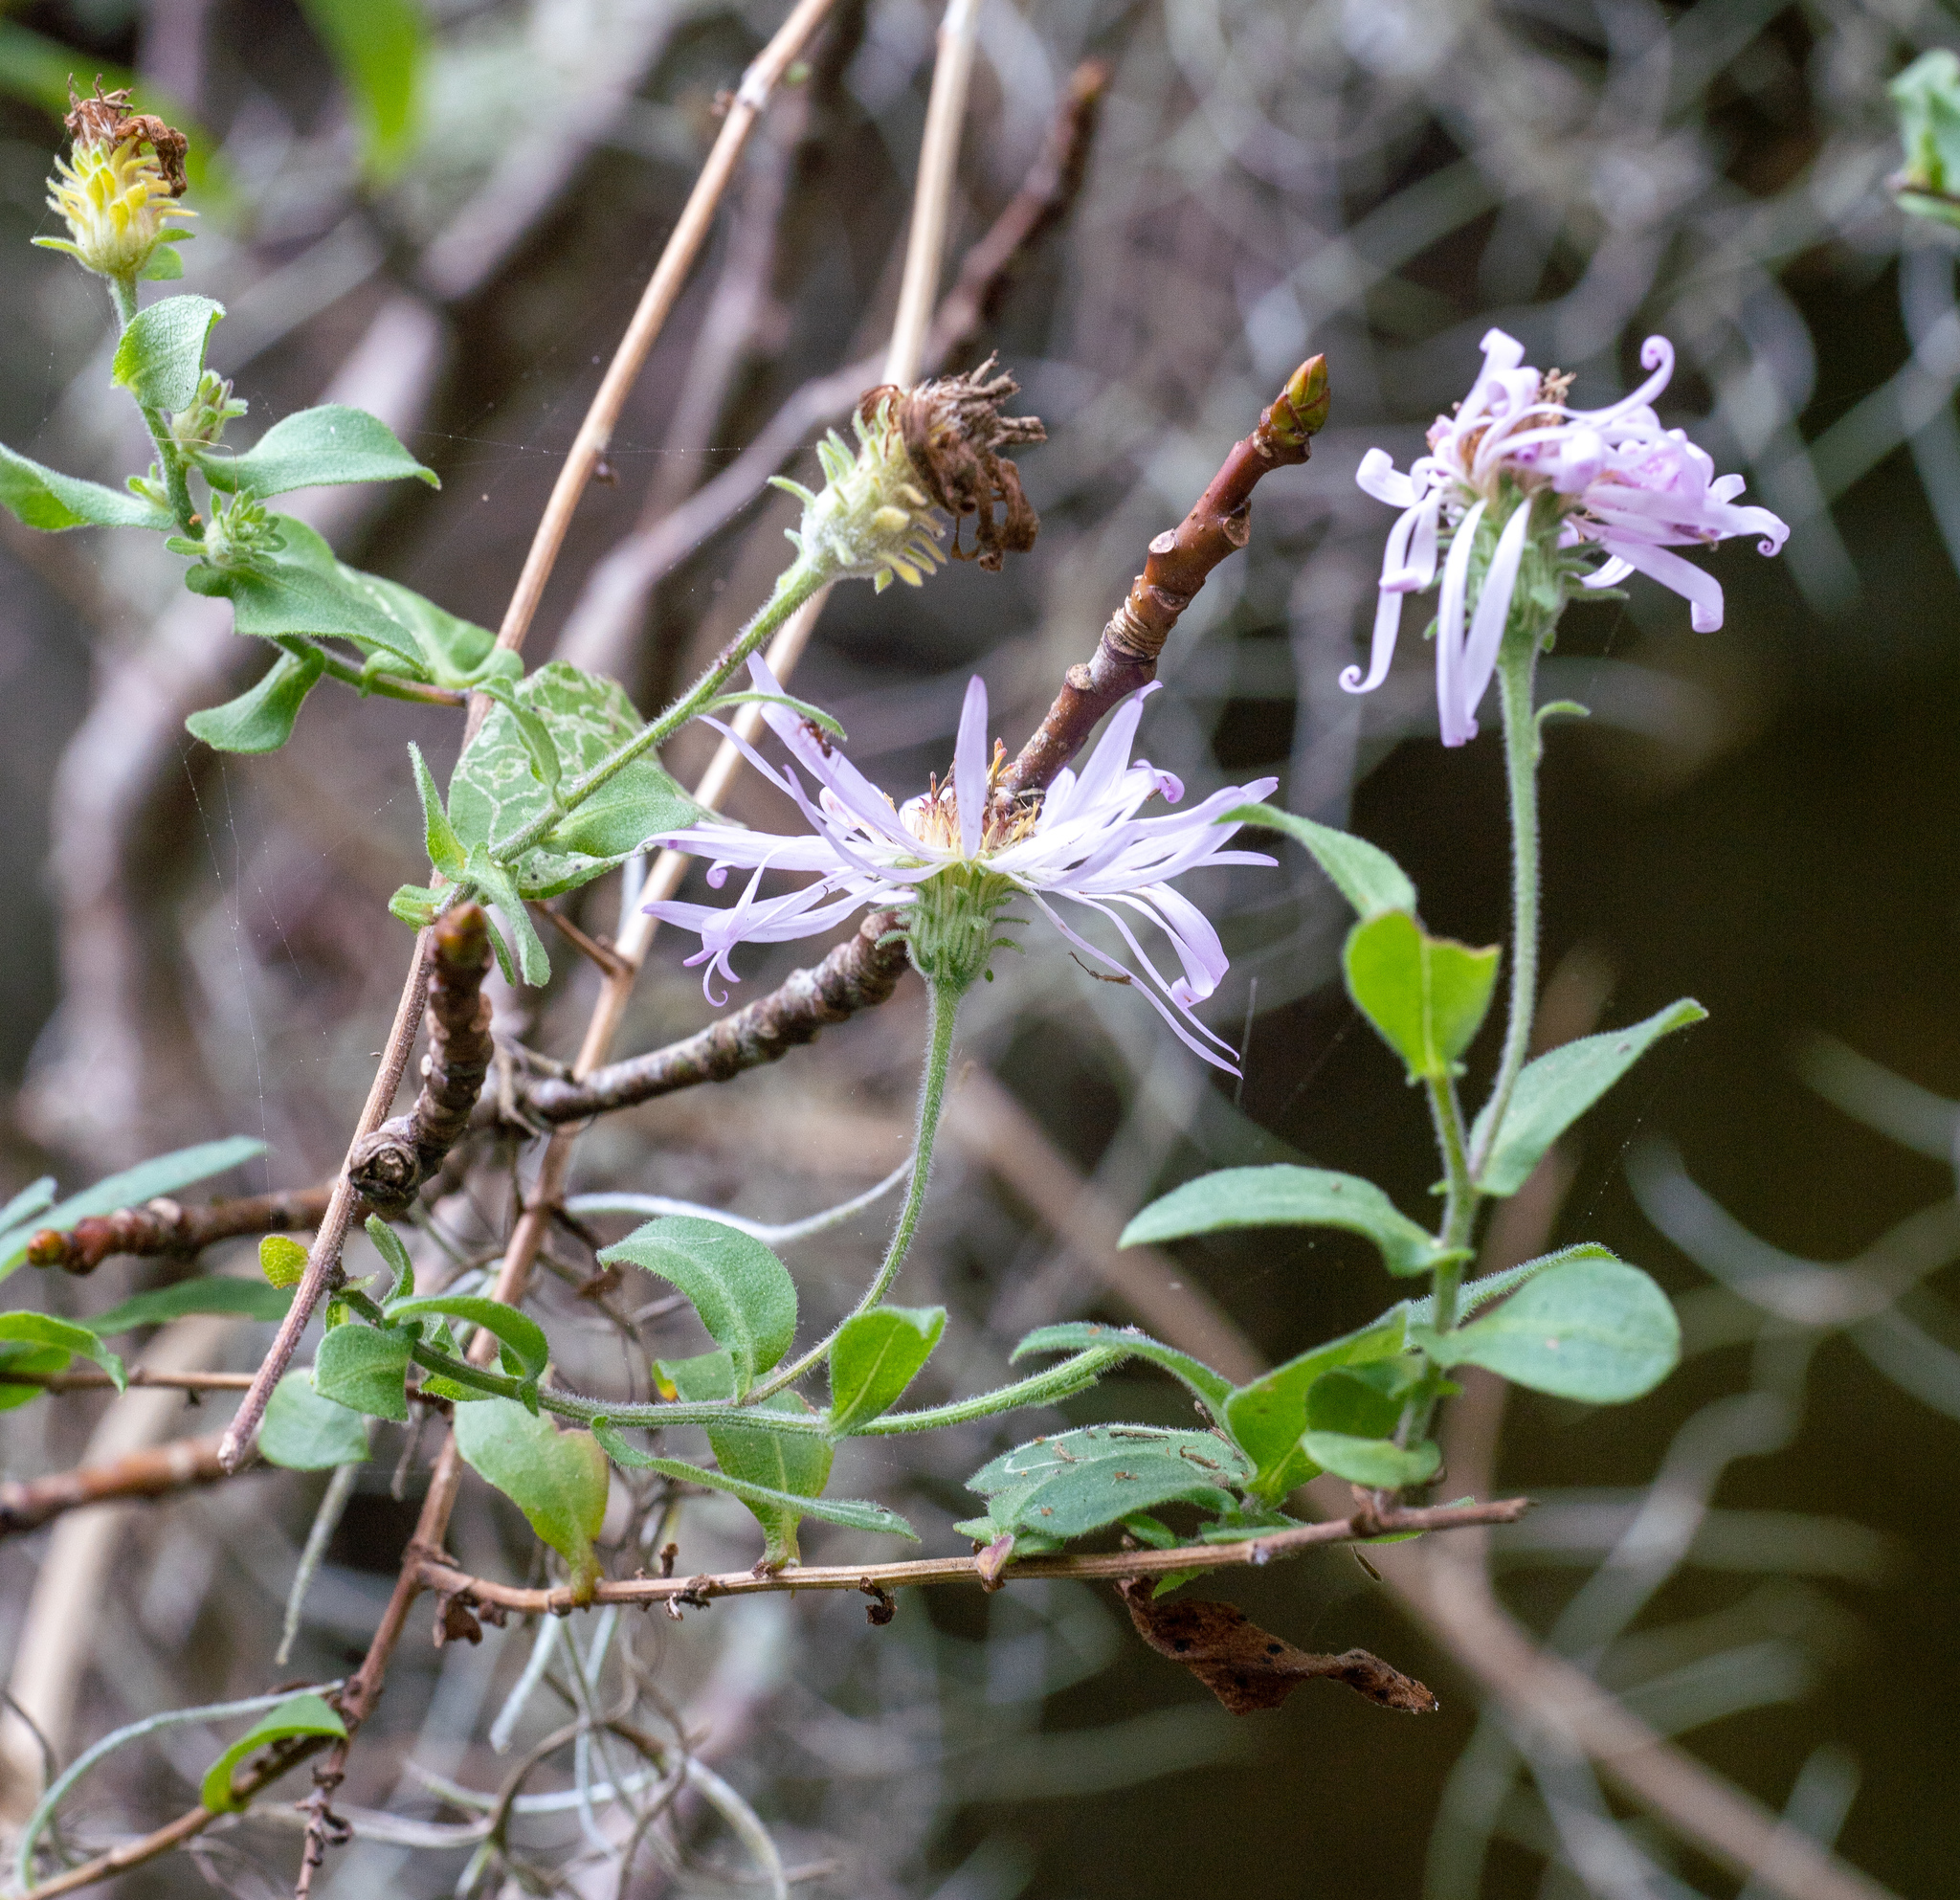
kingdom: Plantae
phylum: Tracheophyta
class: Magnoliopsida
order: Asterales
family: Asteraceae
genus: Ampelaster
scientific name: Ampelaster carolinianus
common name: Climbing aster
